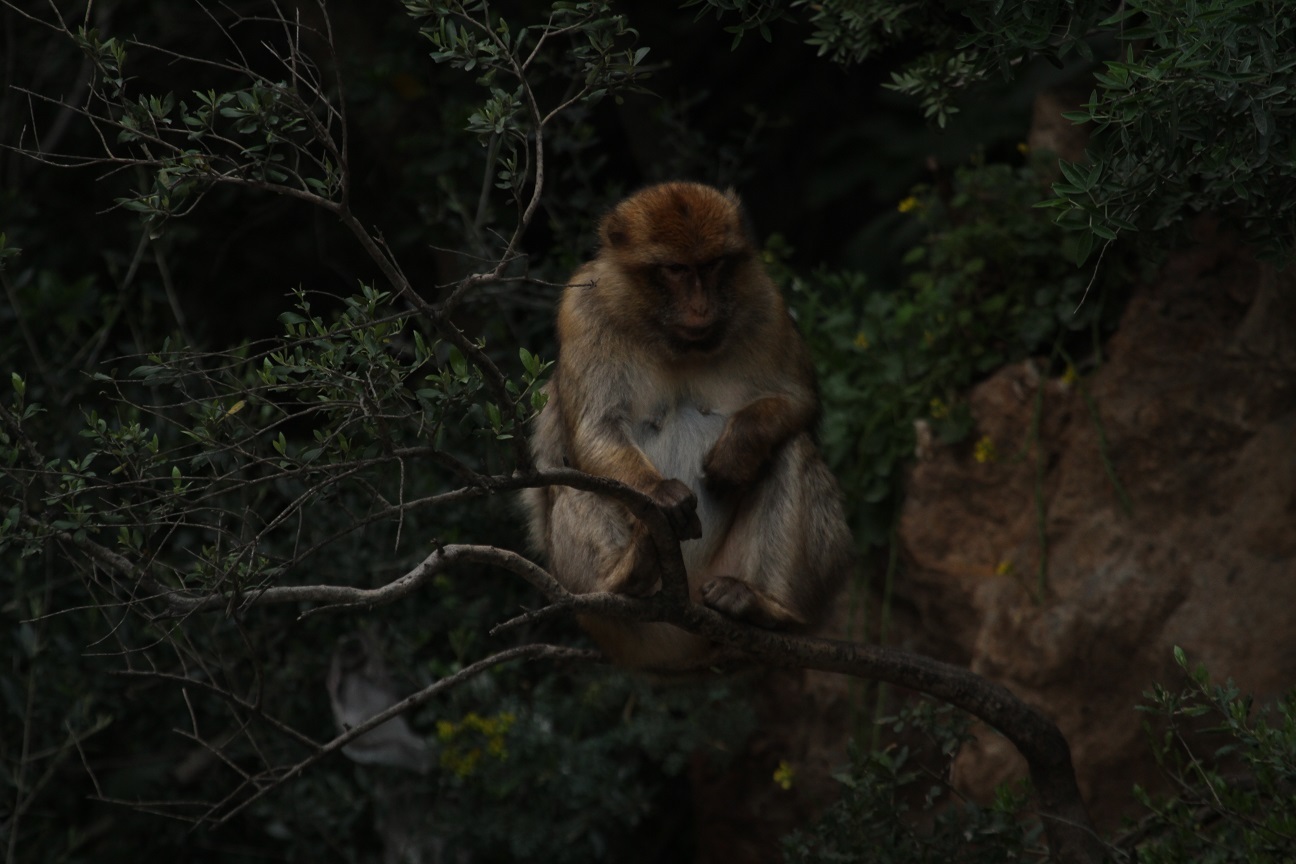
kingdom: Animalia
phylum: Chordata
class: Mammalia
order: Primates
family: Cercopithecidae
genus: Macaca
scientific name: Macaca sylvanus
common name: Barbary macaque
